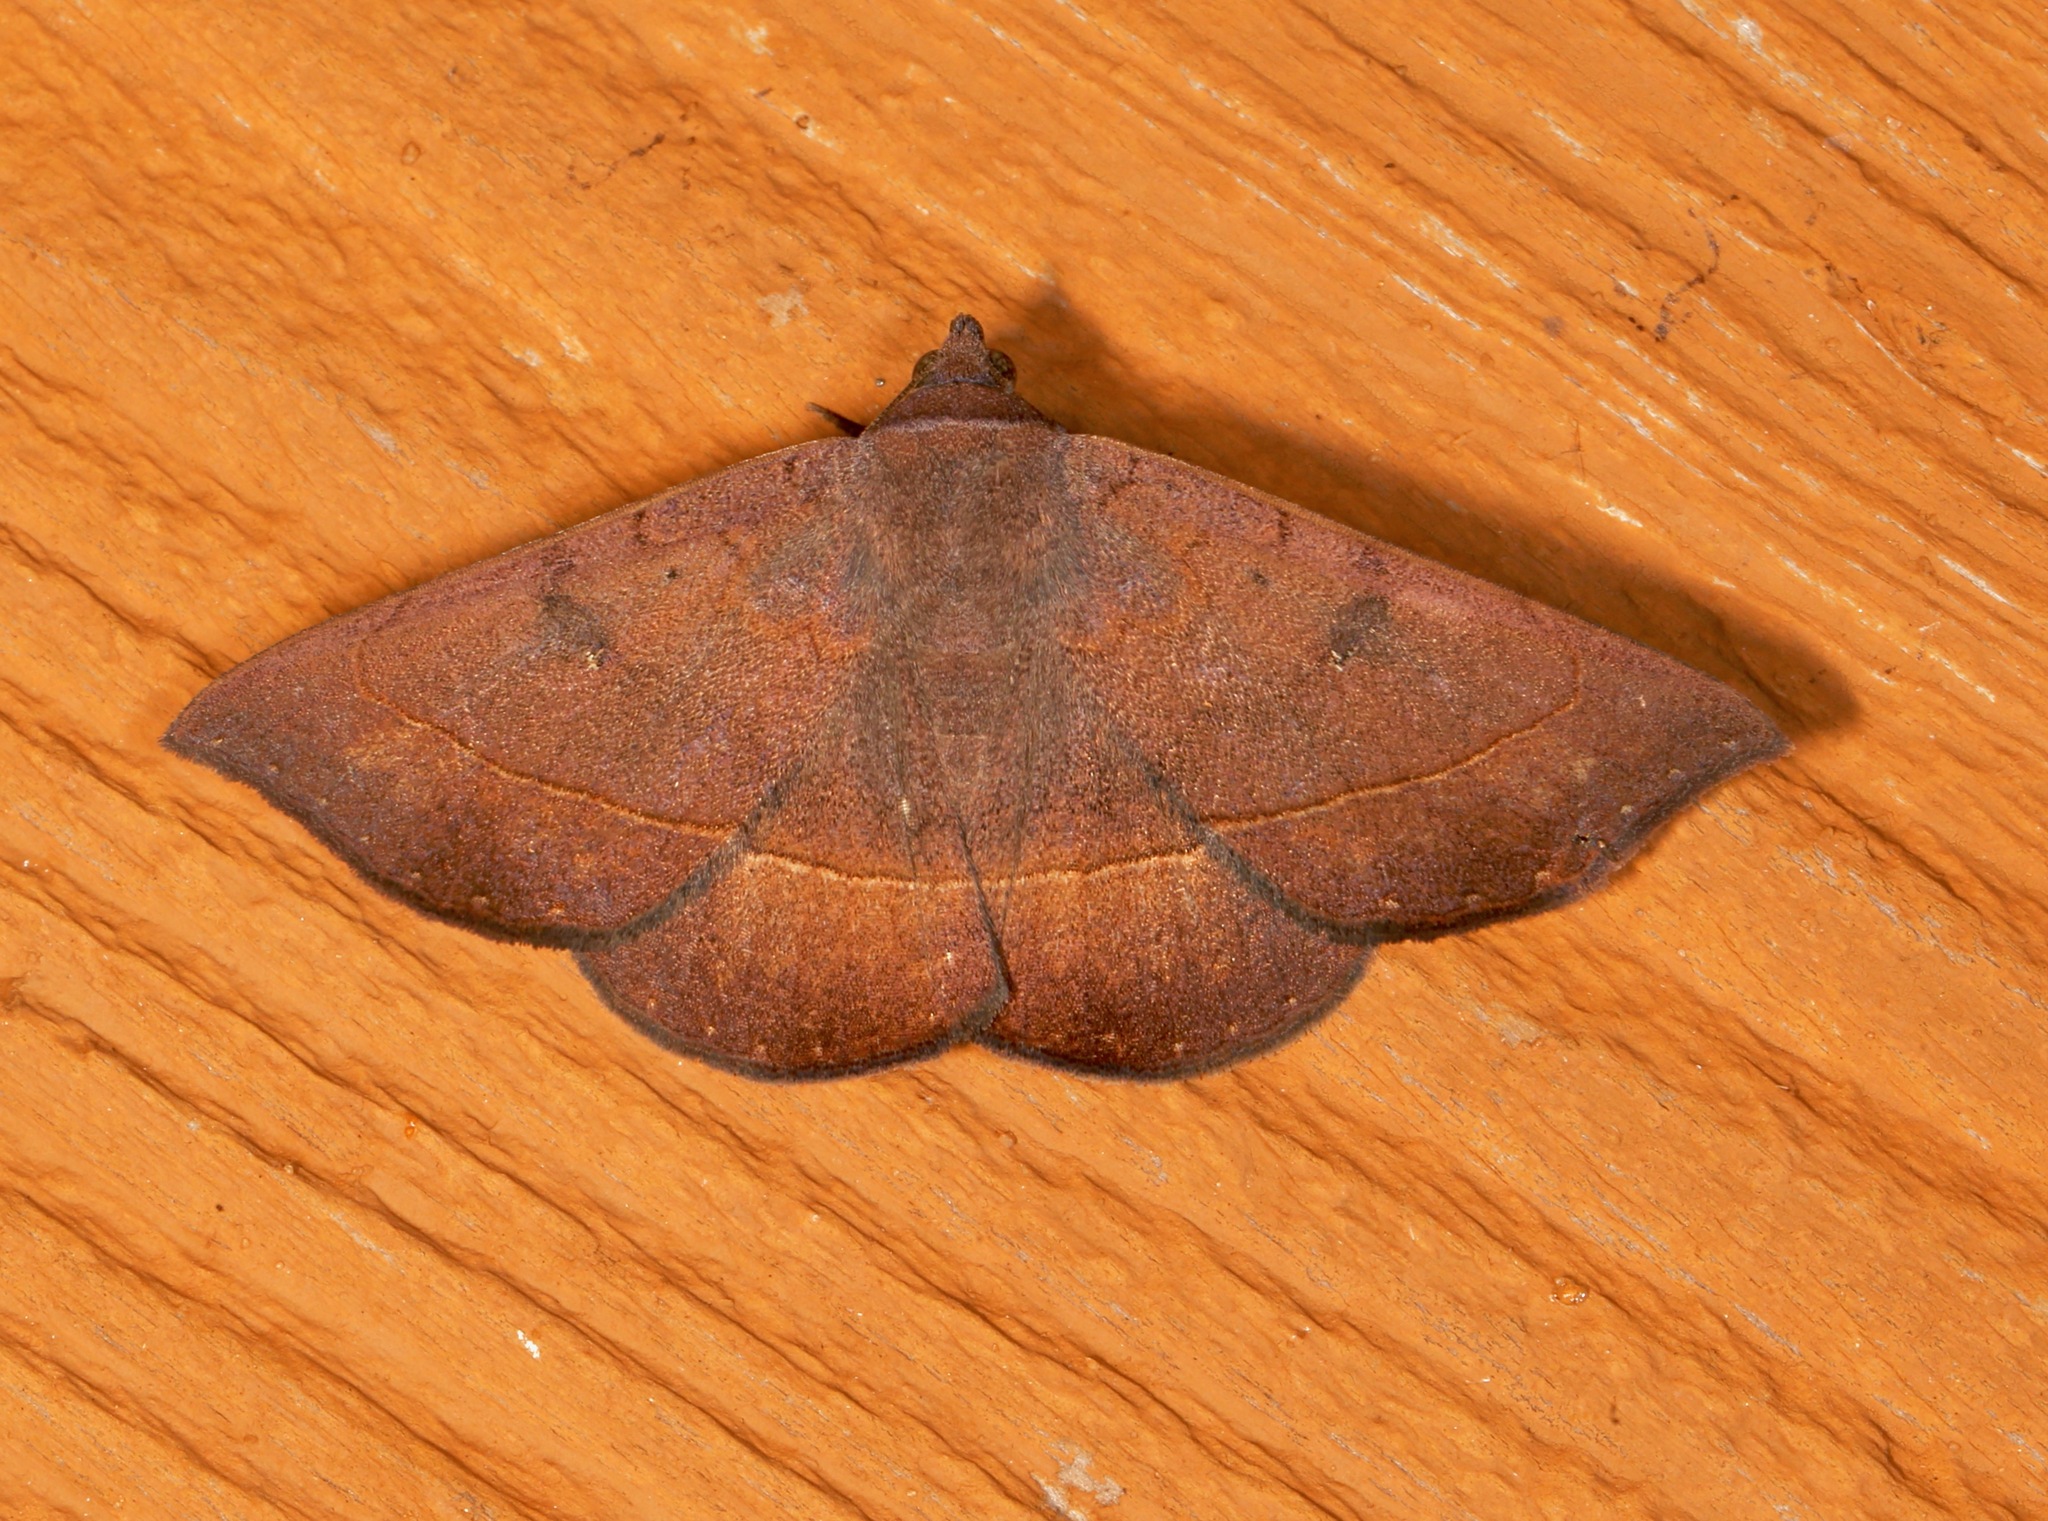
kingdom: Animalia
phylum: Arthropoda
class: Insecta
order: Lepidoptera
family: Erebidae
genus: Epidromia
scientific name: Epidromia rotundata
